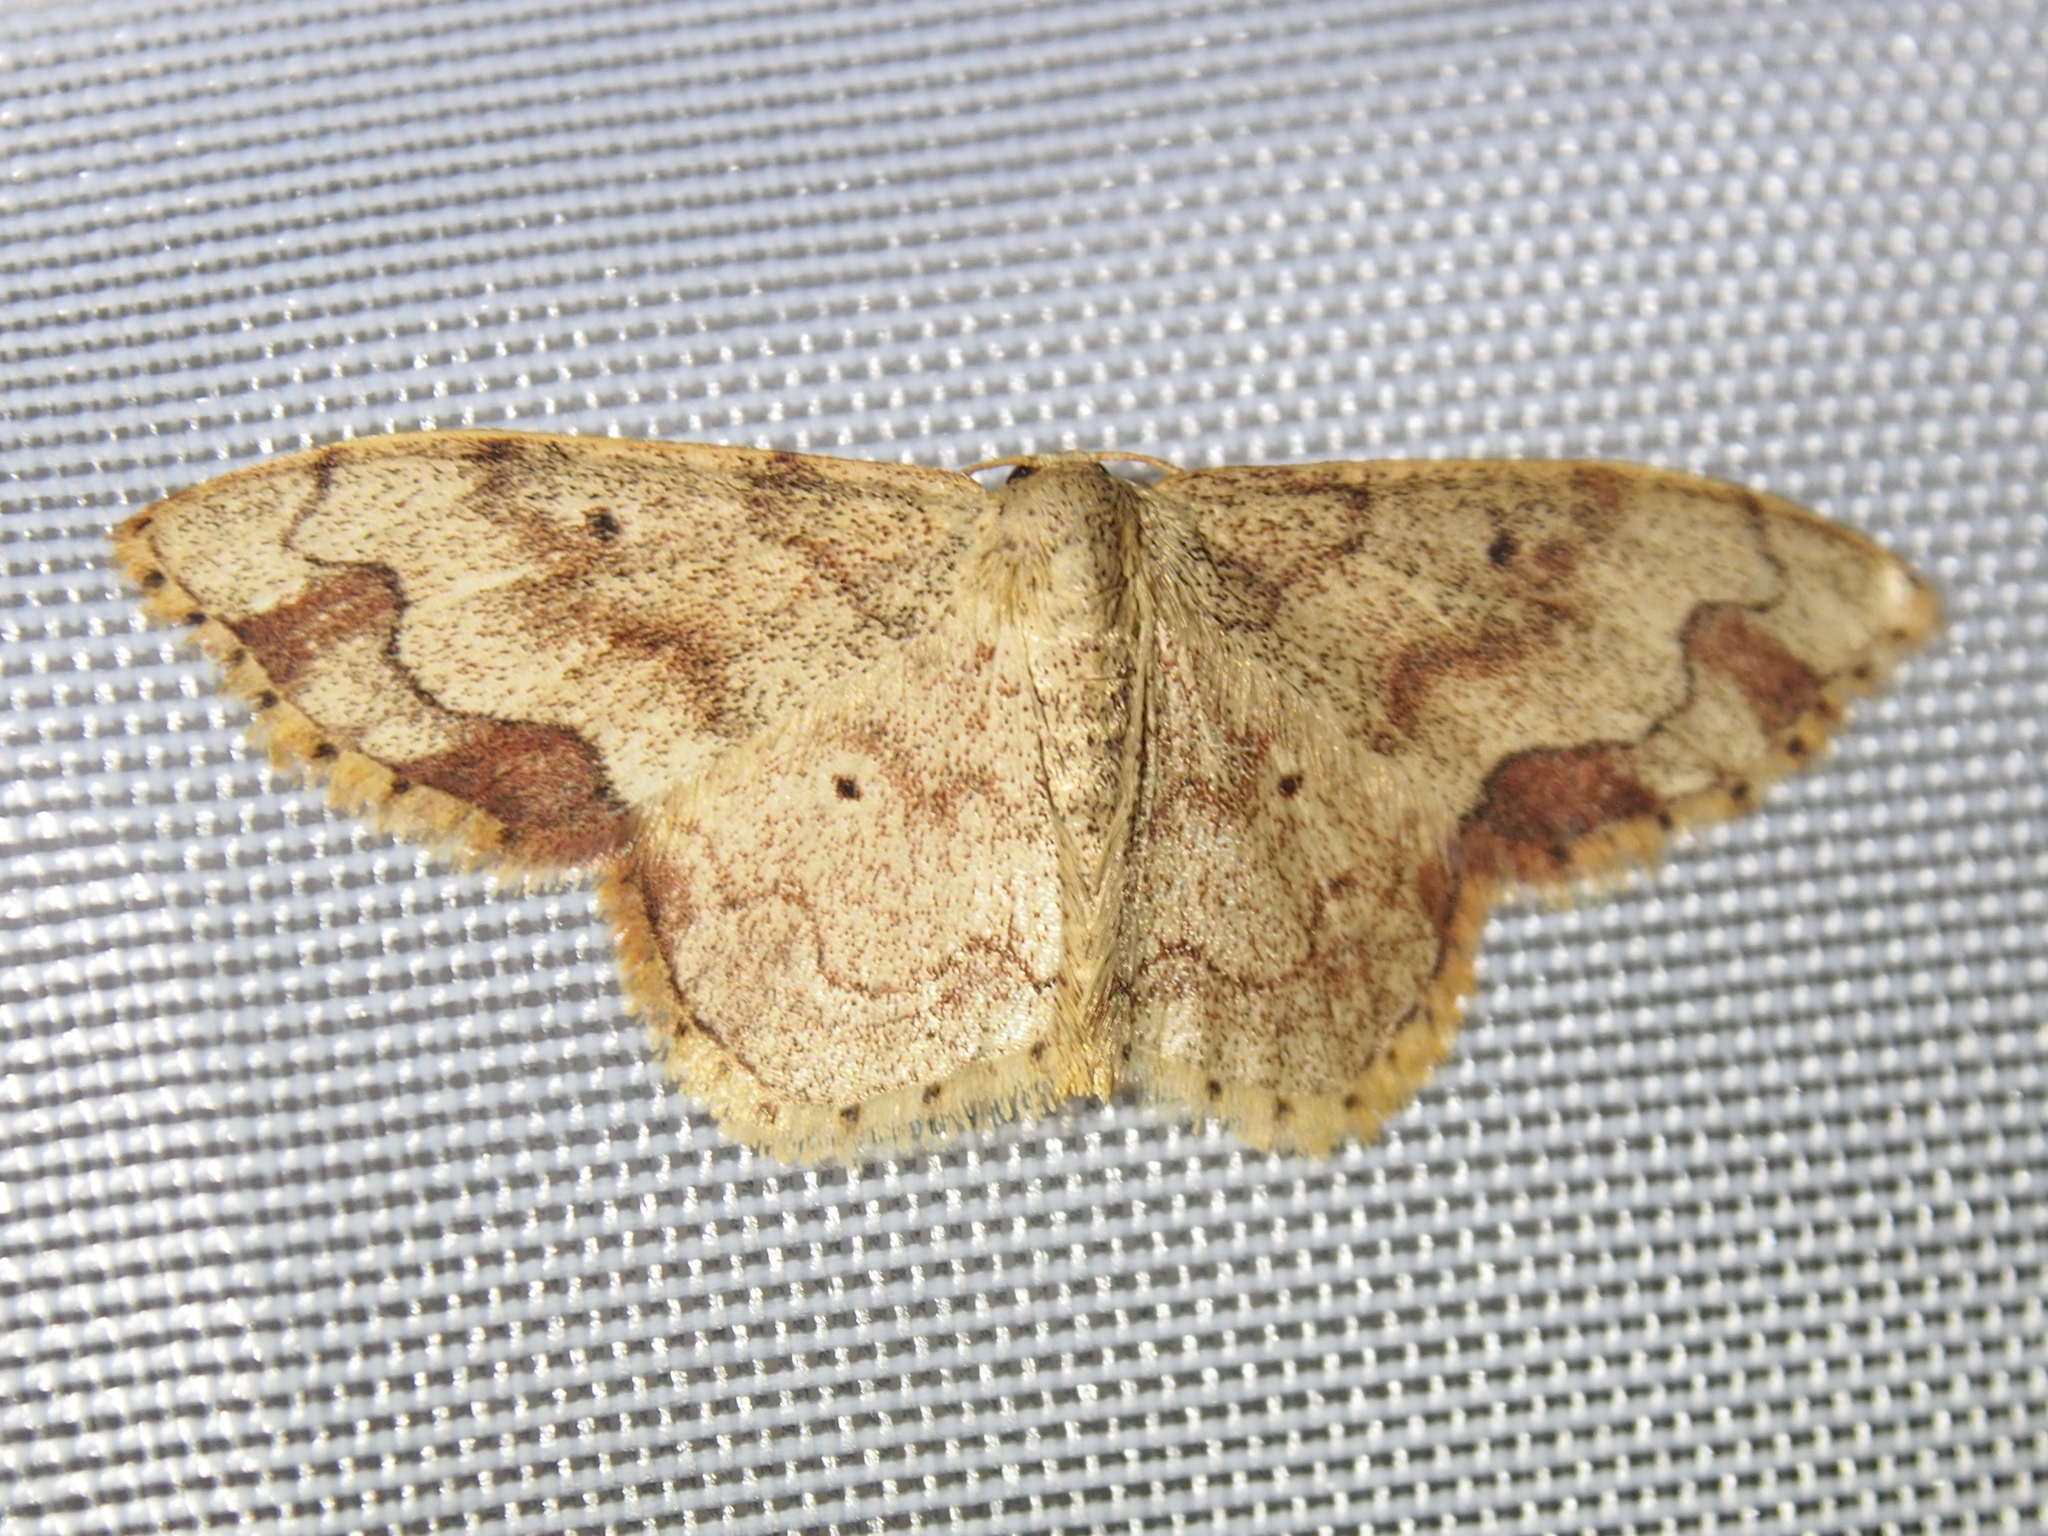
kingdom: Animalia
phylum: Arthropoda
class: Insecta
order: Lepidoptera
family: Geometridae
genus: Lobocleta
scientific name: Lobocleta subcincta
